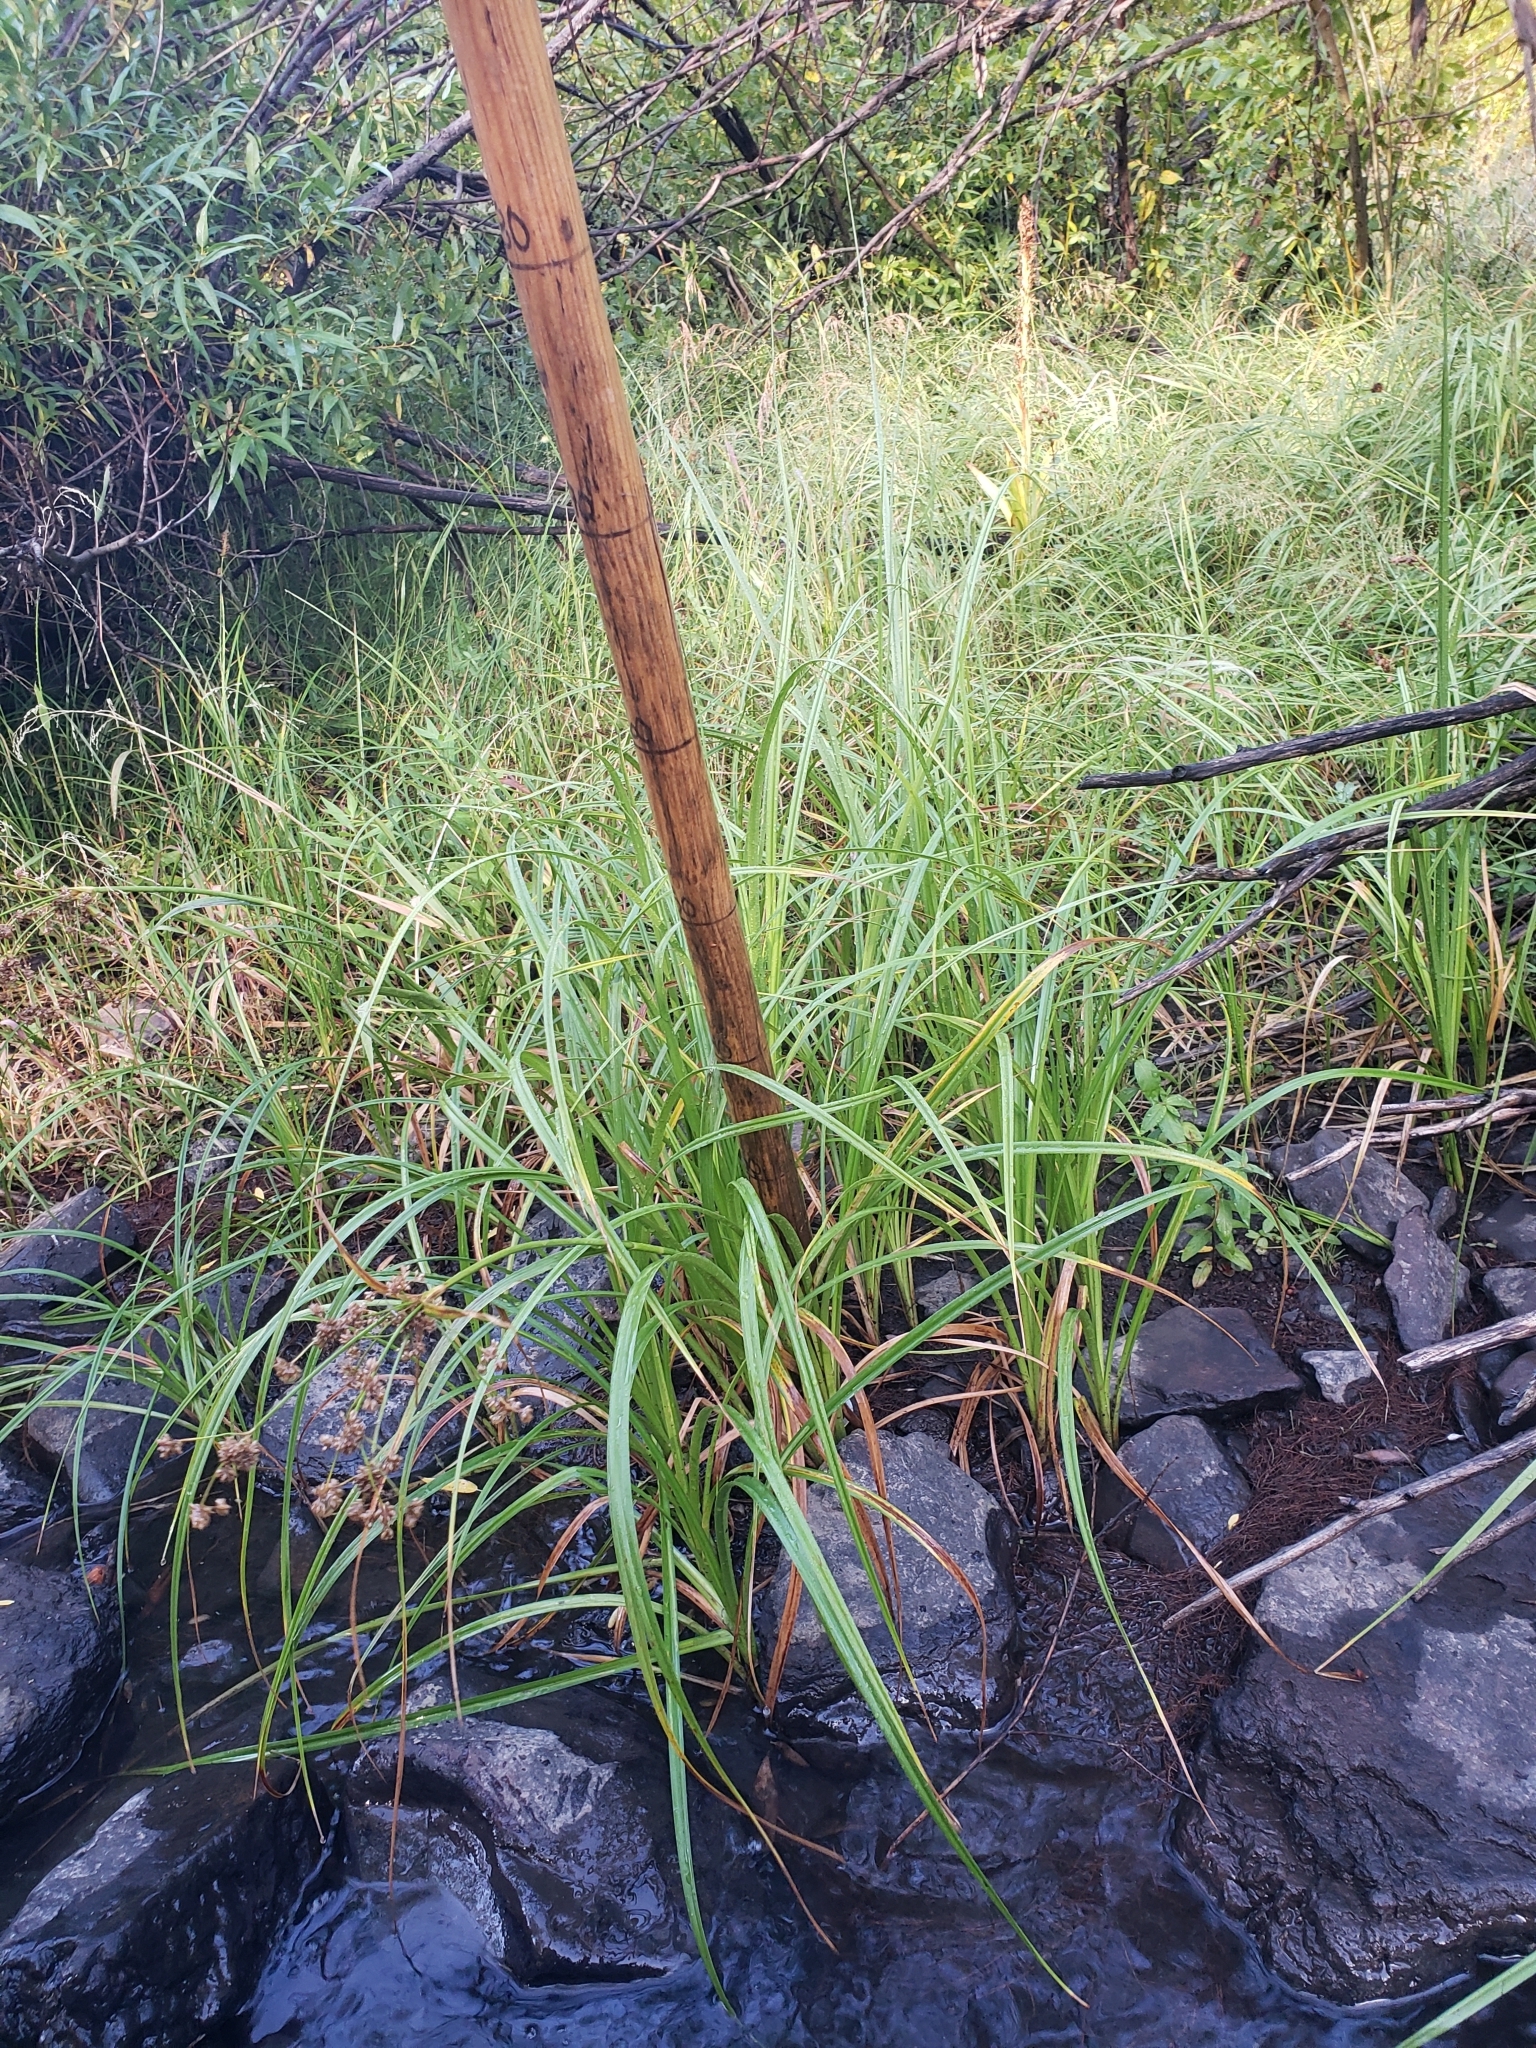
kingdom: Plantae
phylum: Tracheophyta
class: Liliopsida
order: Poales
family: Cyperaceae
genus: Scirpus
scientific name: Scirpus microcarpus
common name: Panicled bulrush
